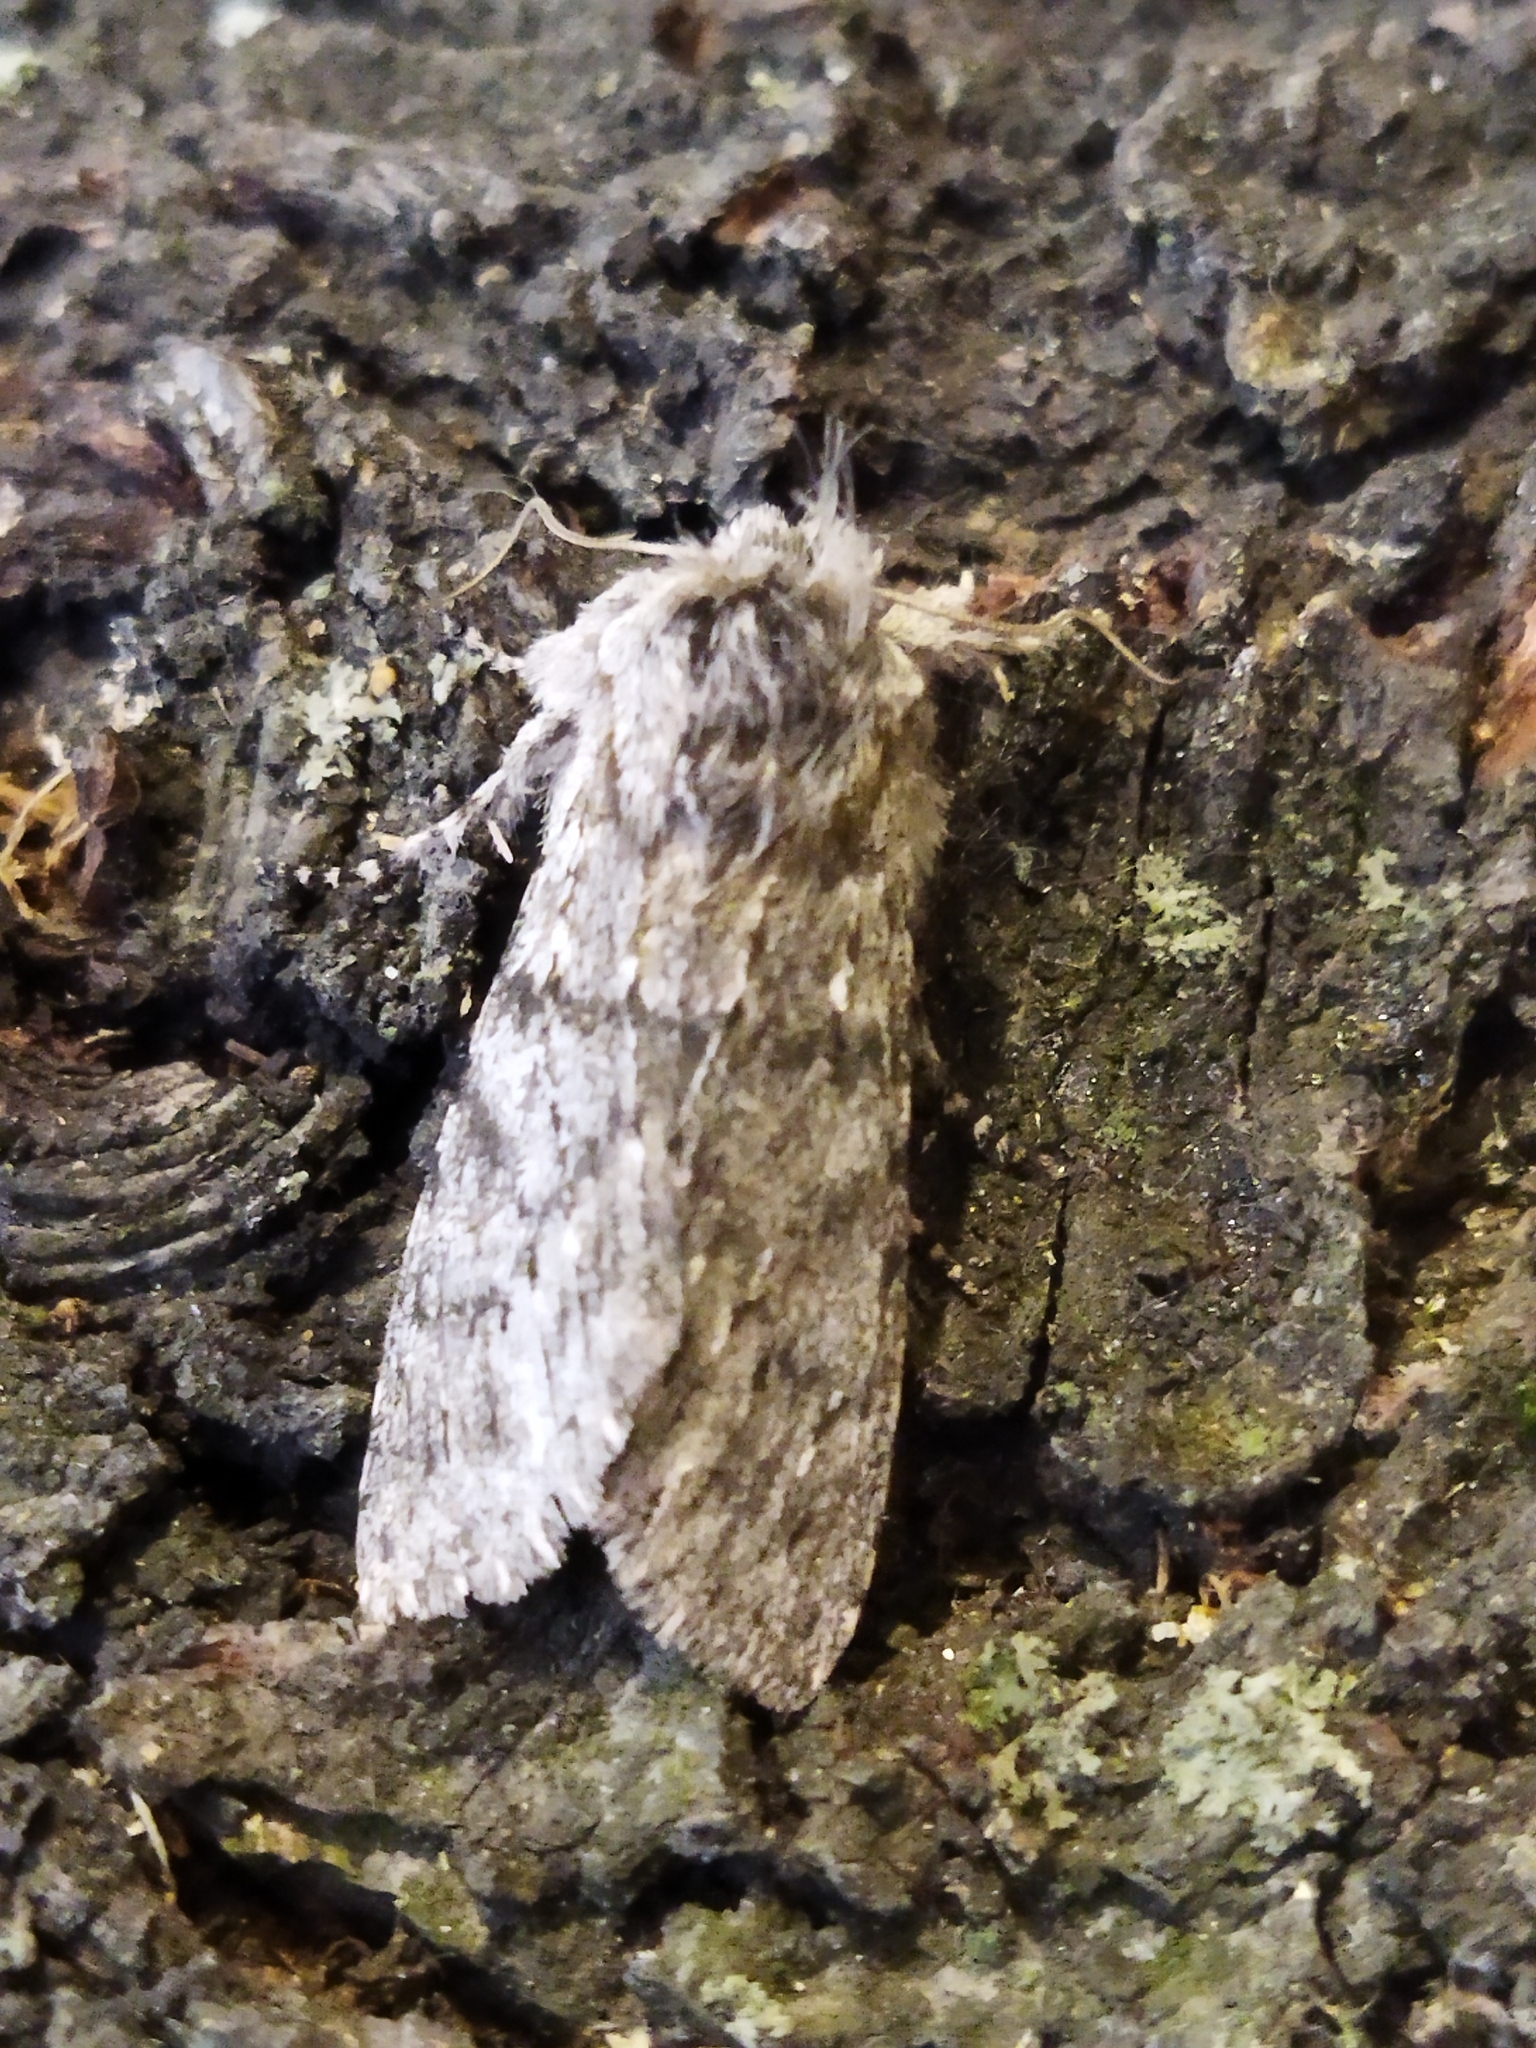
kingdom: Animalia
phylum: Arthropoda
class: Insecta
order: Lepidoptera
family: Notodontidae
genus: Dicranura
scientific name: Dicranura ulmi
